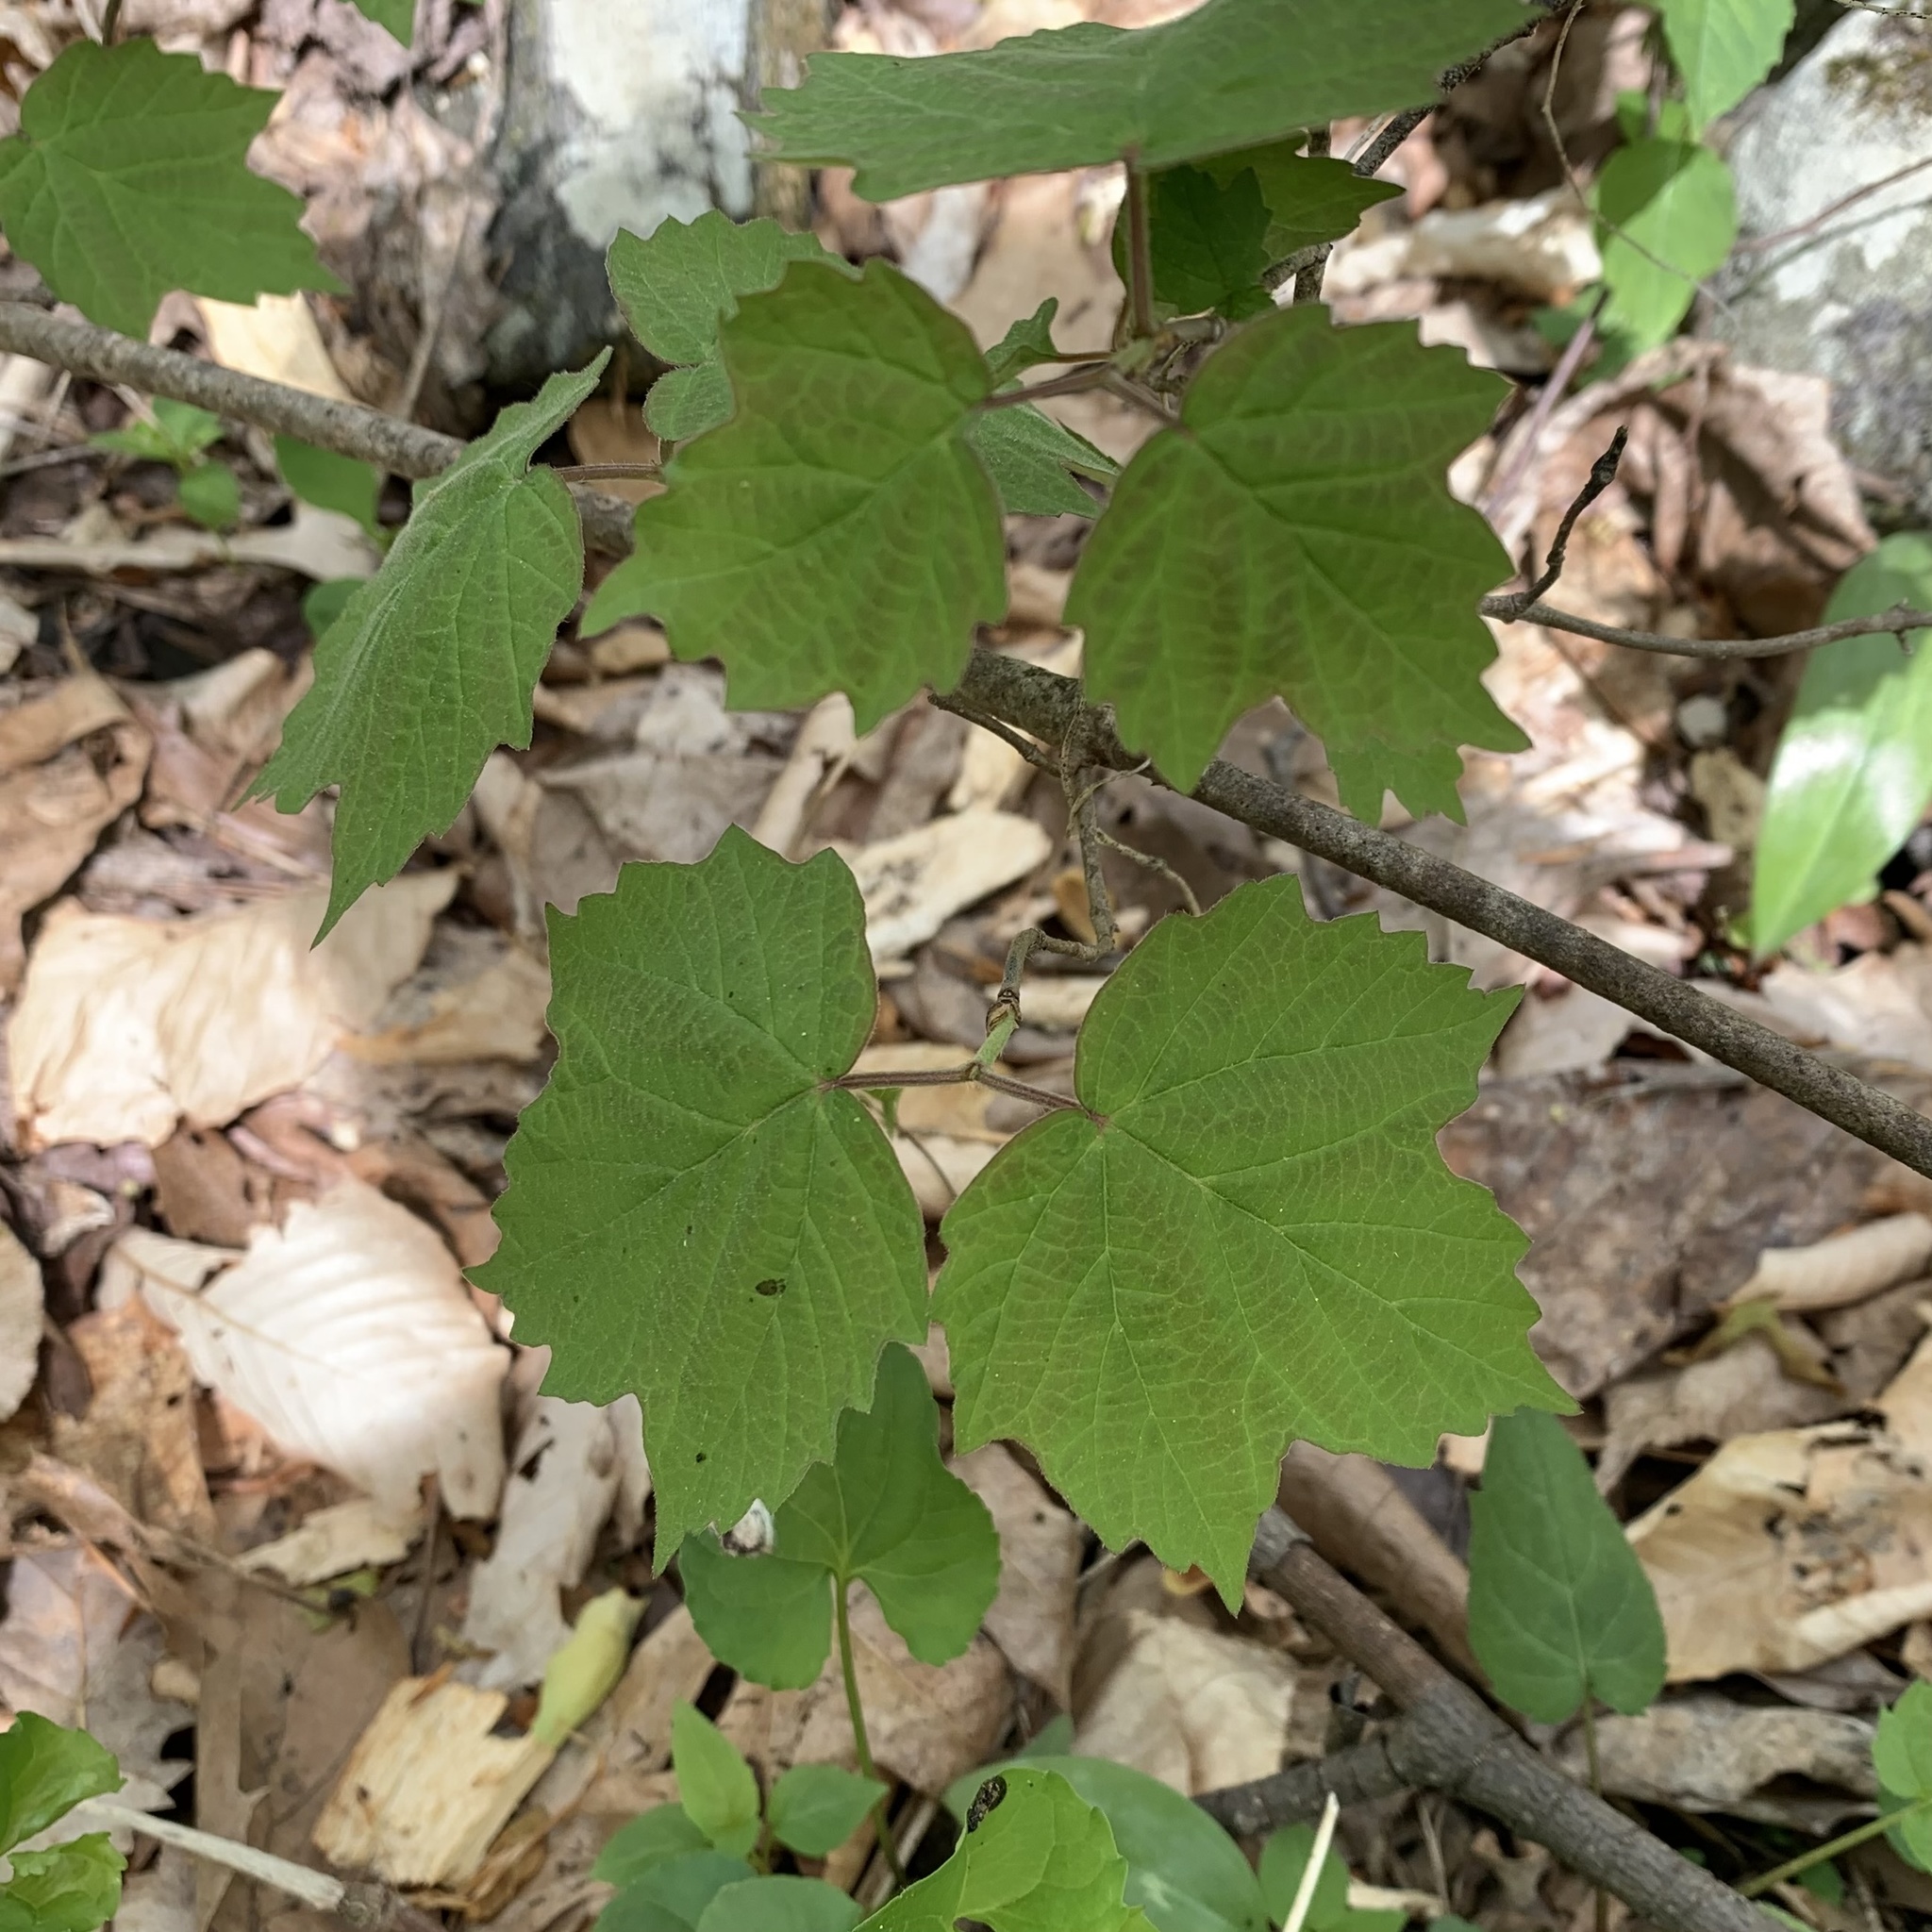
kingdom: Plantae
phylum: Tracheophyta
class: Magnoliopsida
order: Dipsacales
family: Viburnaceae
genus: Viburnum
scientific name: Viburnum acerifolium
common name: Dockmackie
